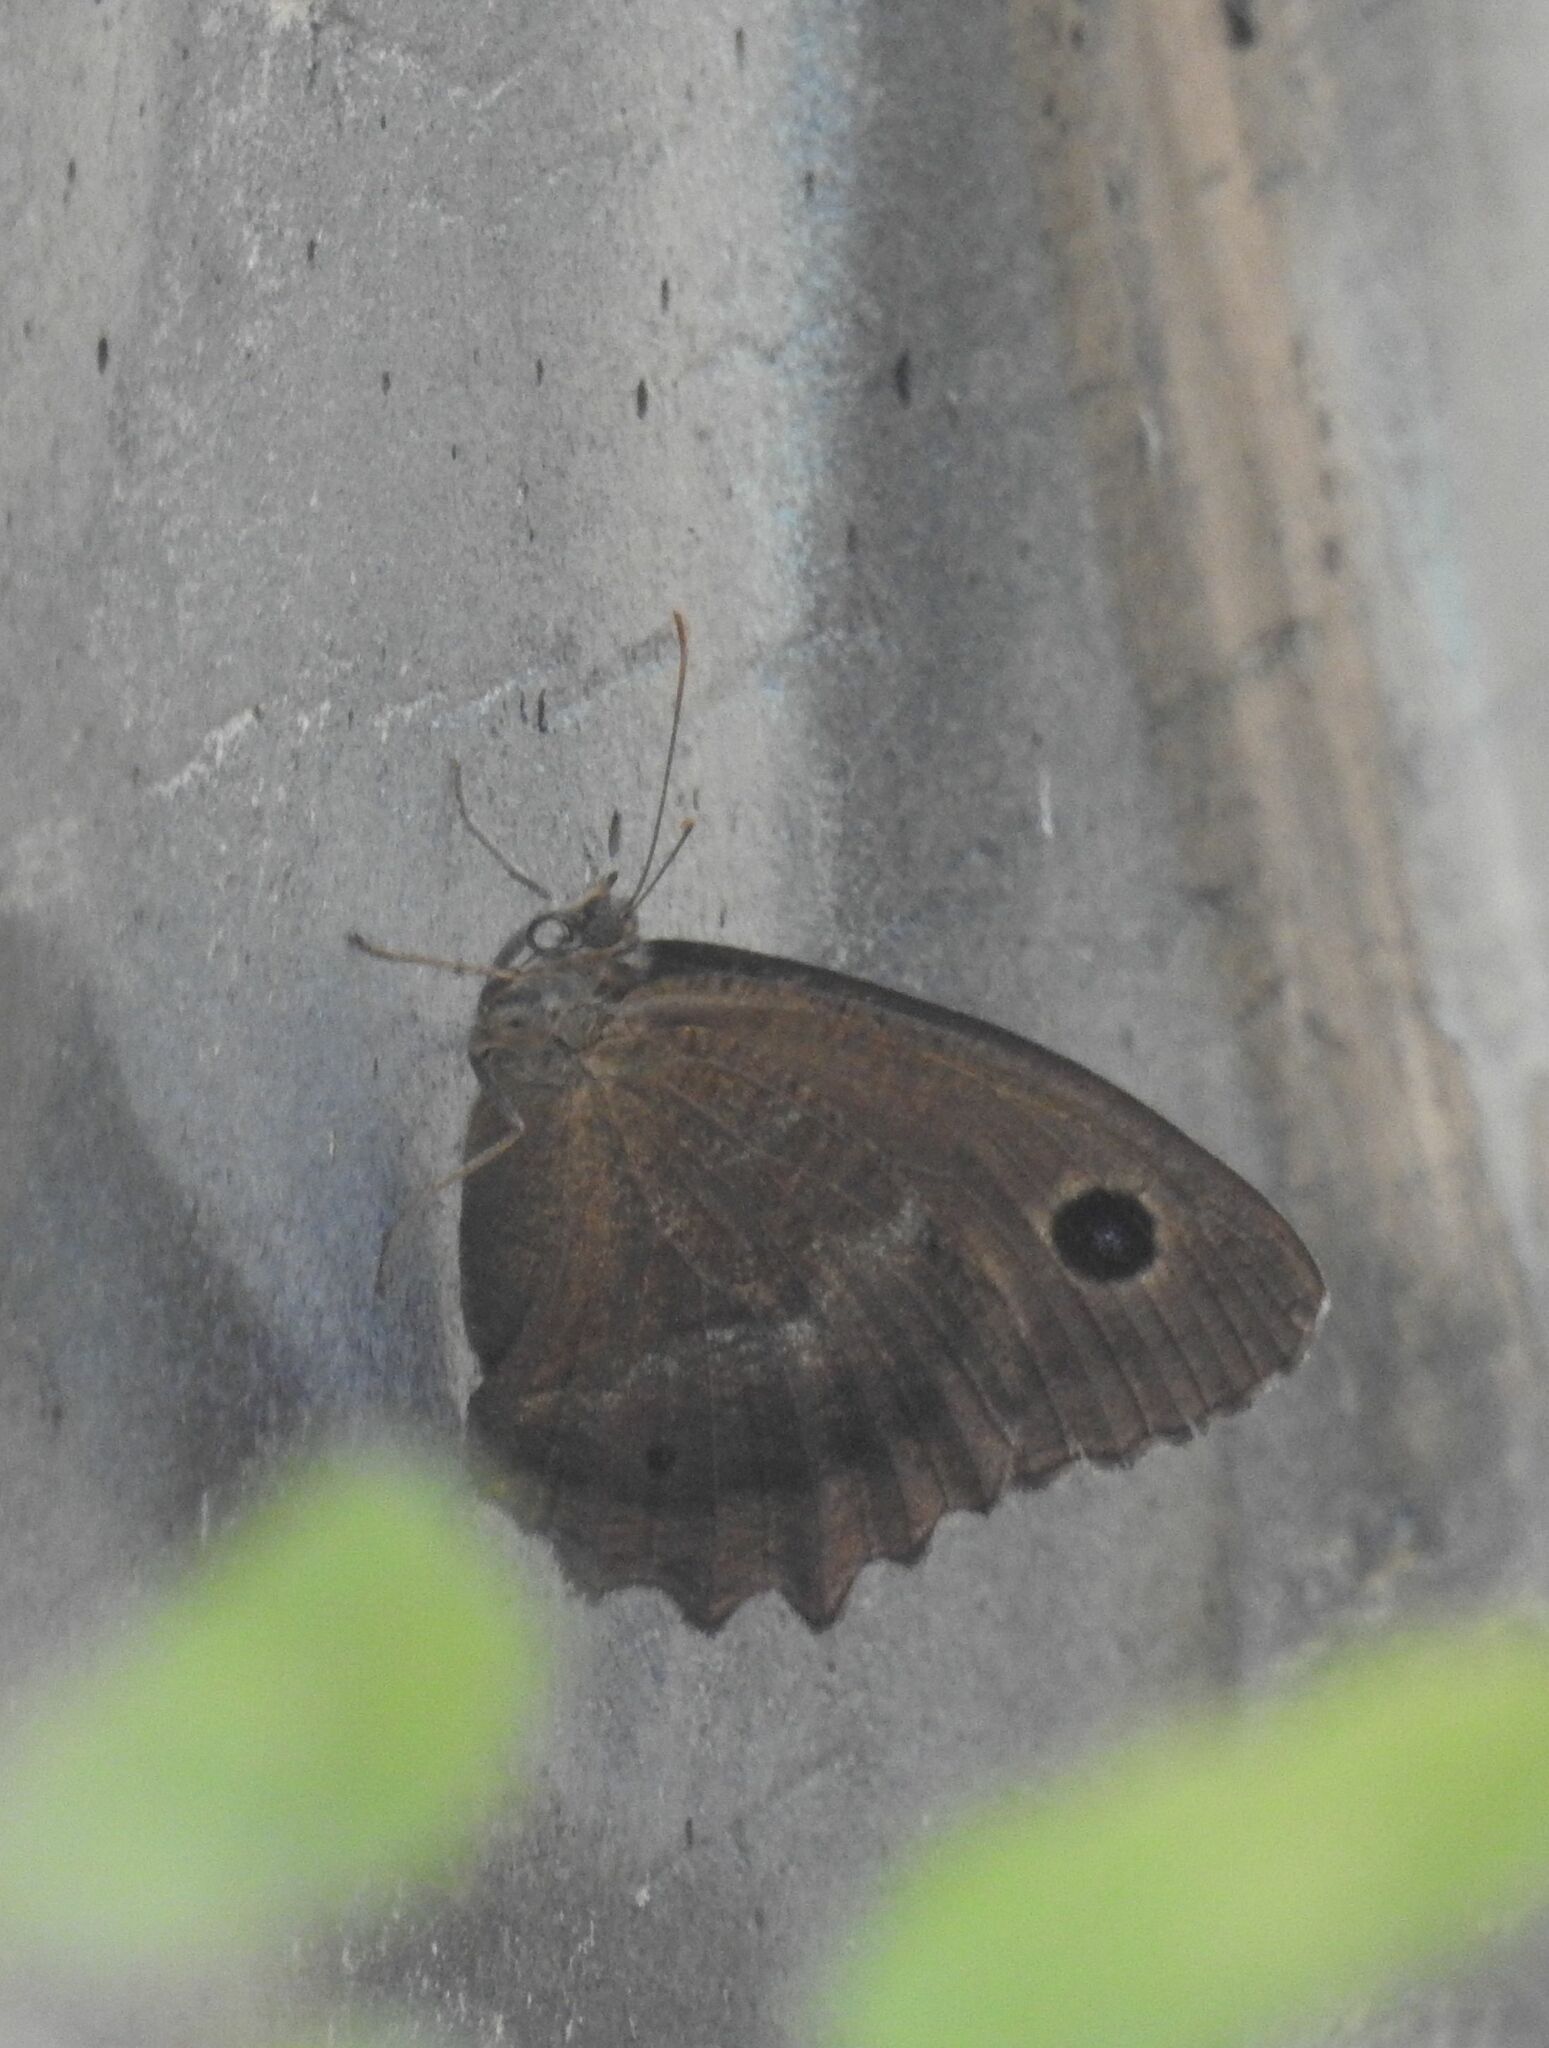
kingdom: Animalia
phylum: Arthropoda
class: Insecta
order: Lepidoptera
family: Nymphalidae
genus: Minois
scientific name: Minois dryas
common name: Dryad
